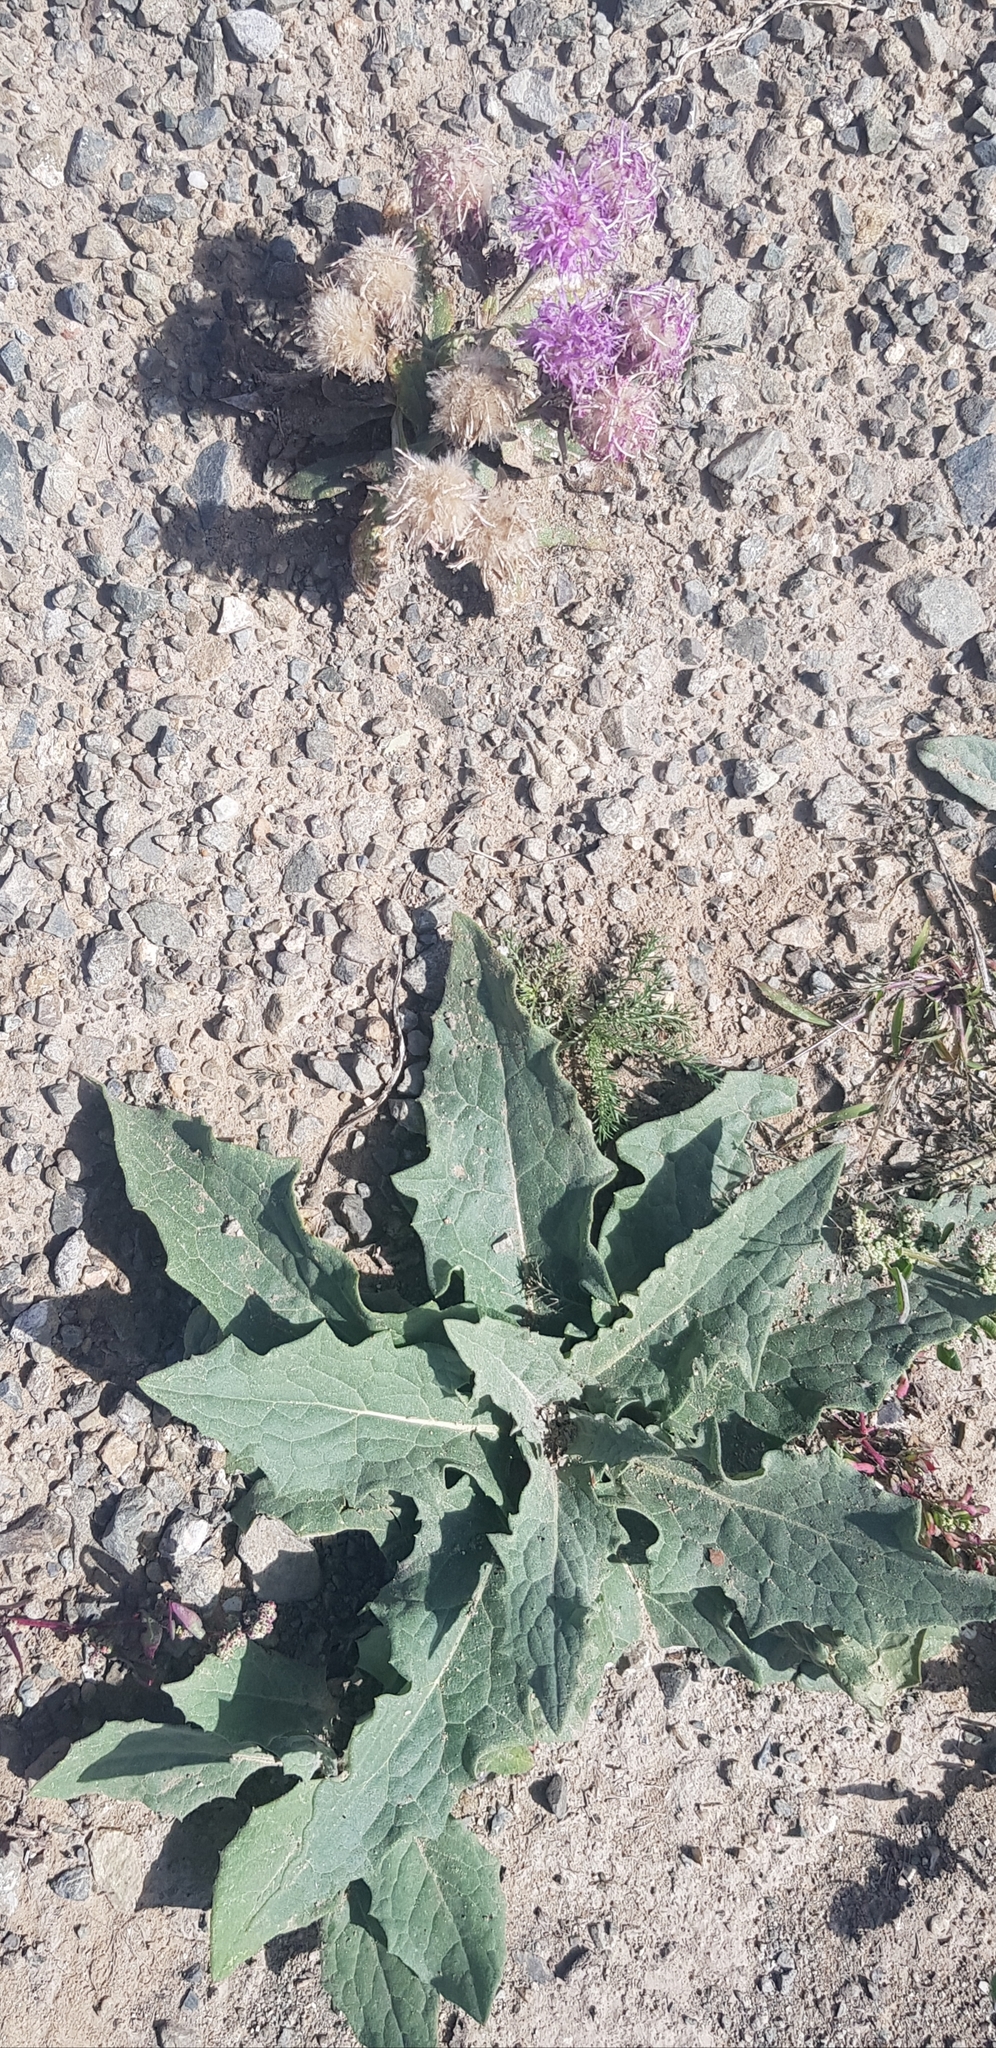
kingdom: Plantae
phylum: Tracheophyta
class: Magnoliopsida
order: Asterales
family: Asteraceae
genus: Saussurea
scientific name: Saussurea amara
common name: Alberta sawwort
